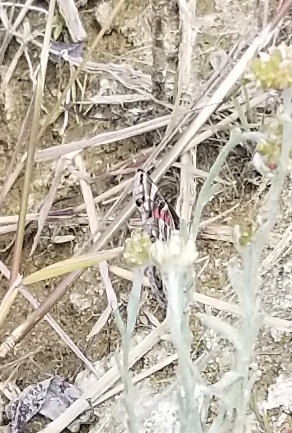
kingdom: Animalia
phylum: Arthropoda
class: Insecta
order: Lepidoptera
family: Nymphalidae
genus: Vanessa
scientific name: Vanessa virginiensis
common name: American lady
